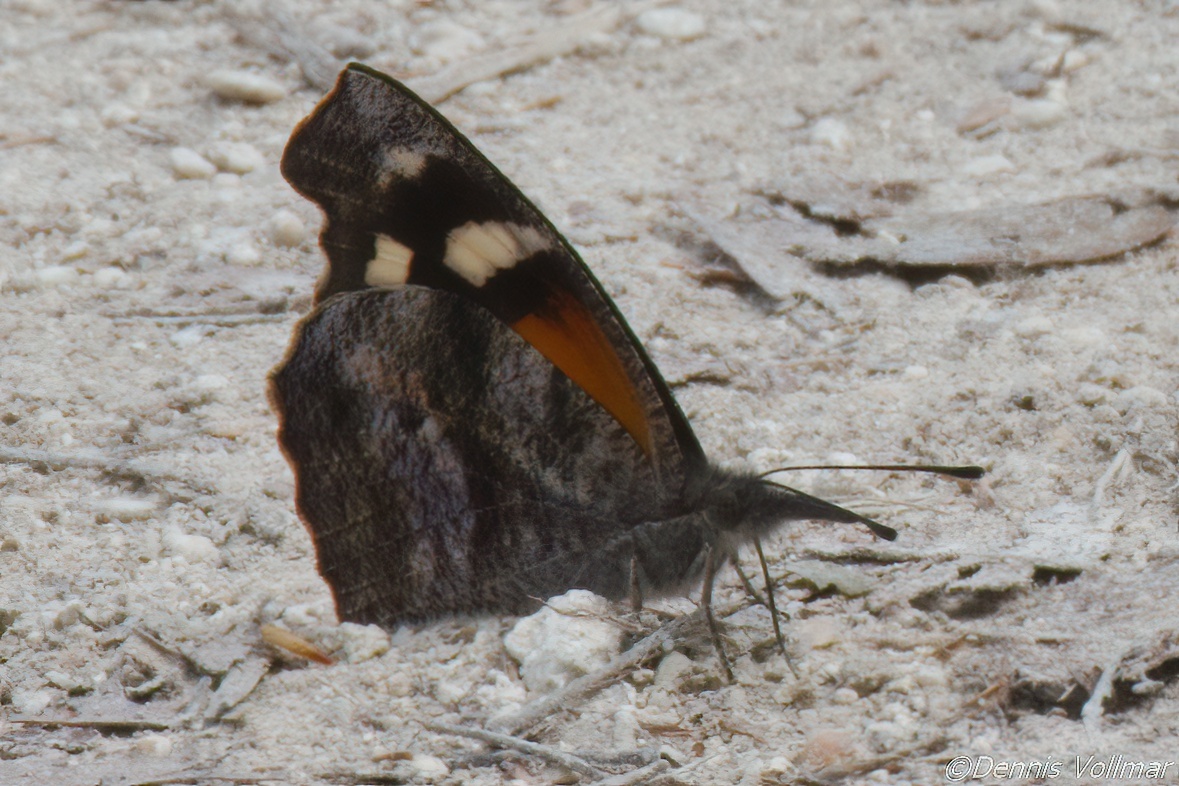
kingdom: Animalia
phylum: Arthropoda
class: Insecta
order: Lepidoptera
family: Nymphalidae
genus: Libytheana
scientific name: Libytheana carinenta
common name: American snout
